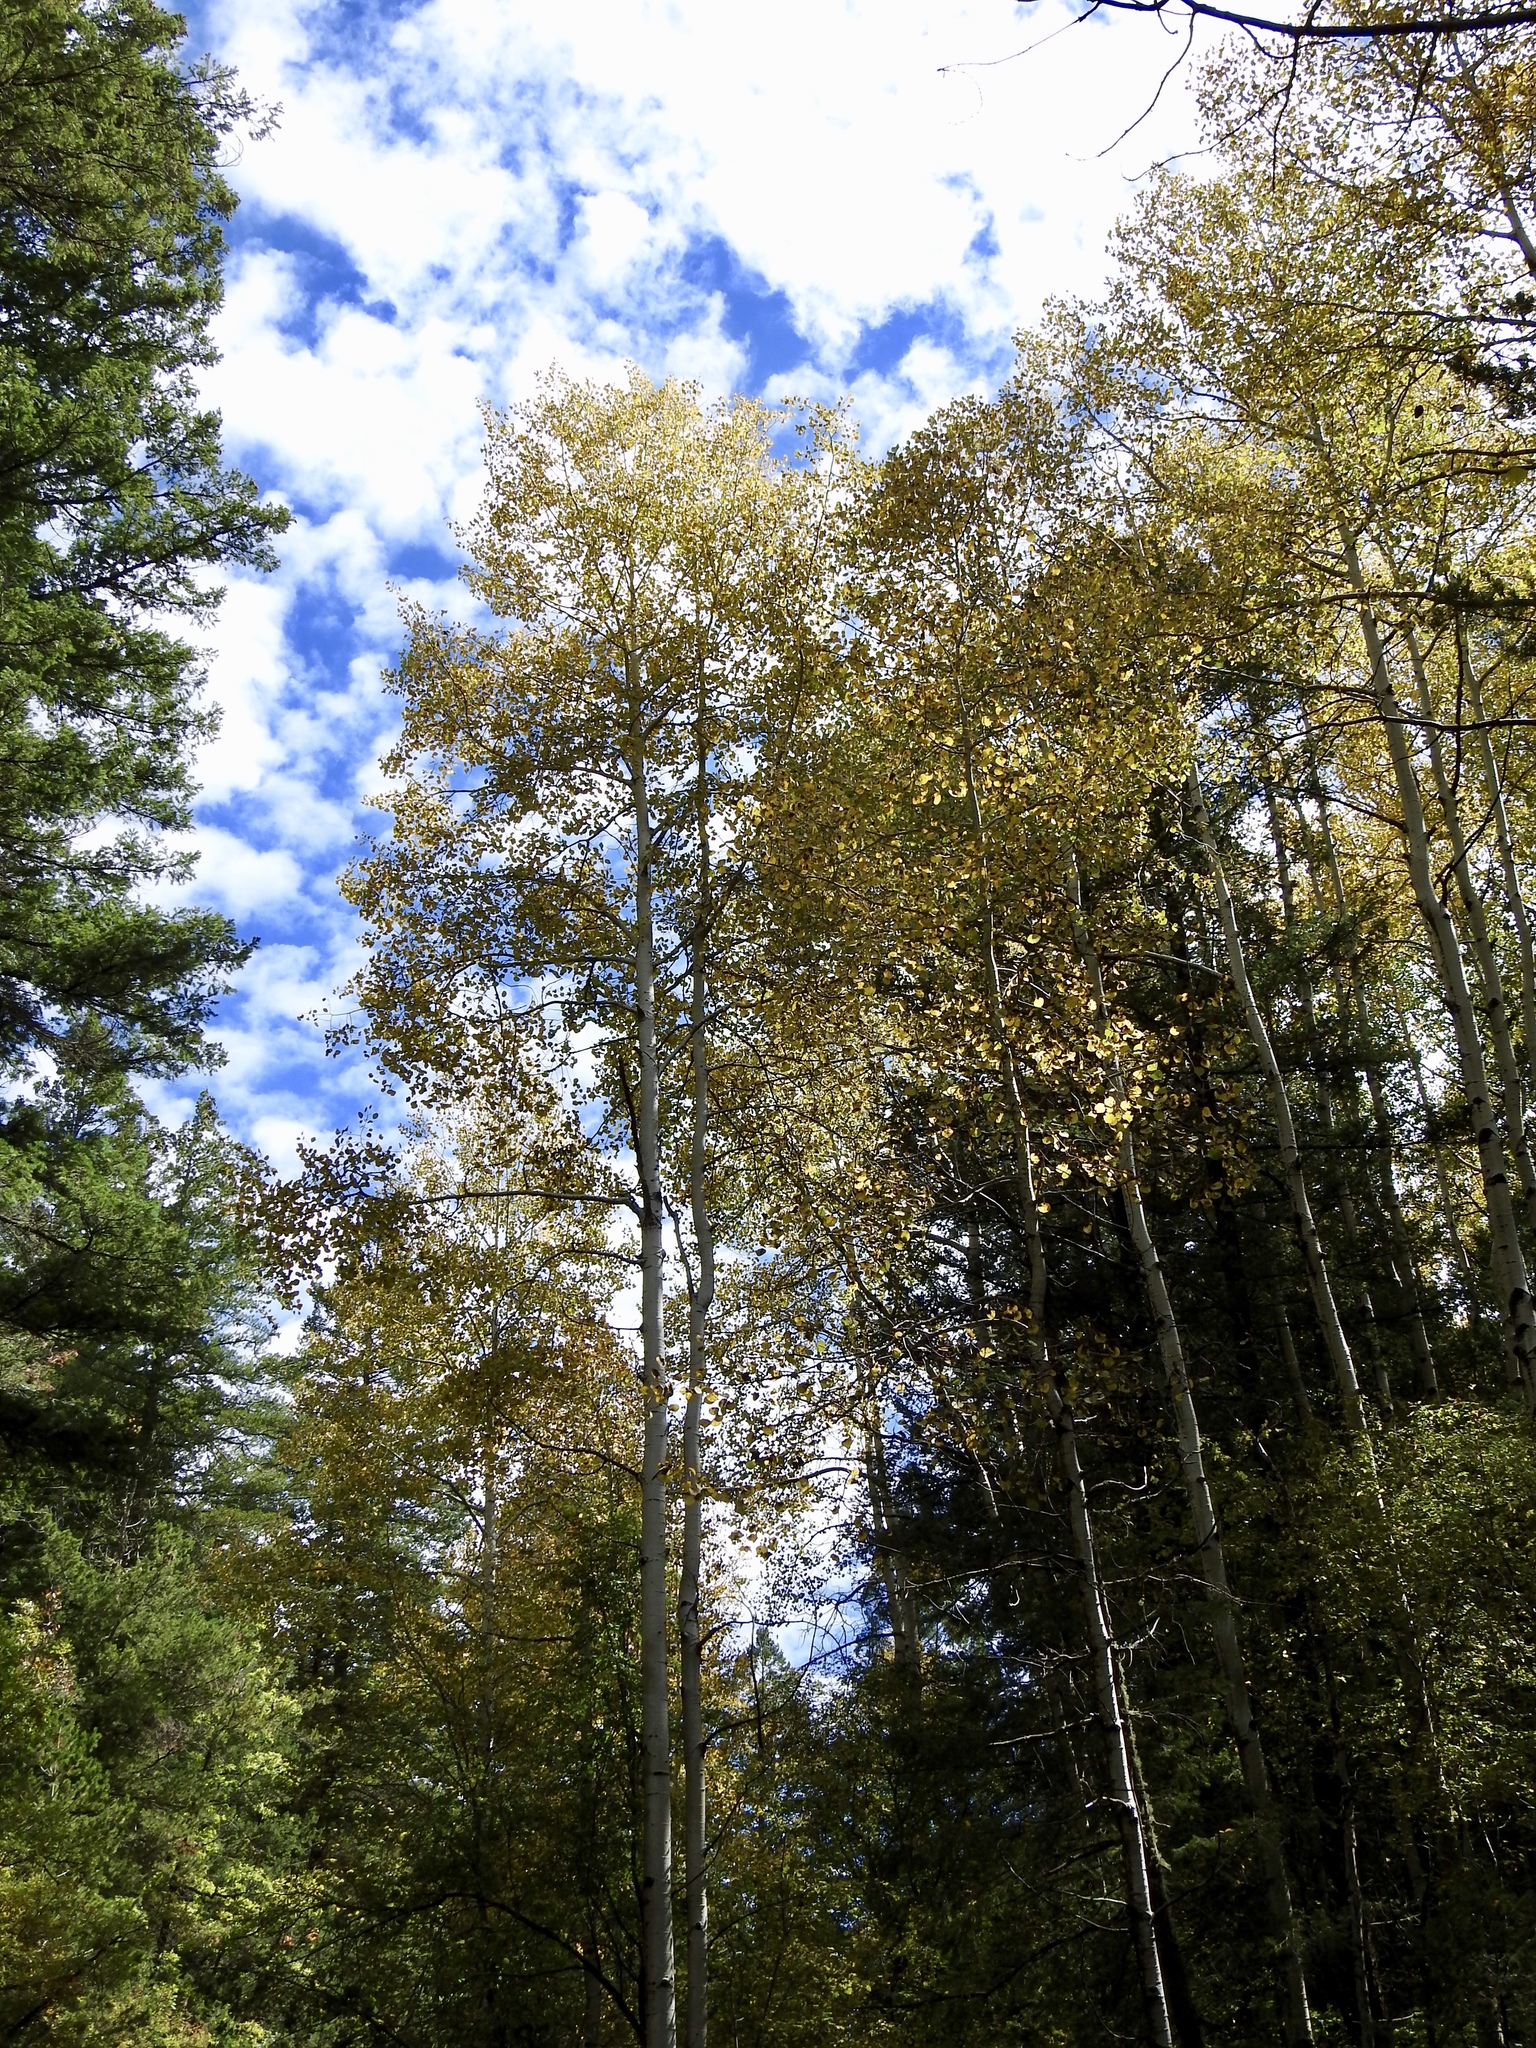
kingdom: Plantae
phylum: Tracheophyta
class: Magnoliopsida
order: Malpighiales
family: Salicaceae
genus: Populus
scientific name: Populus tremuloides
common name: Quaking aspen
